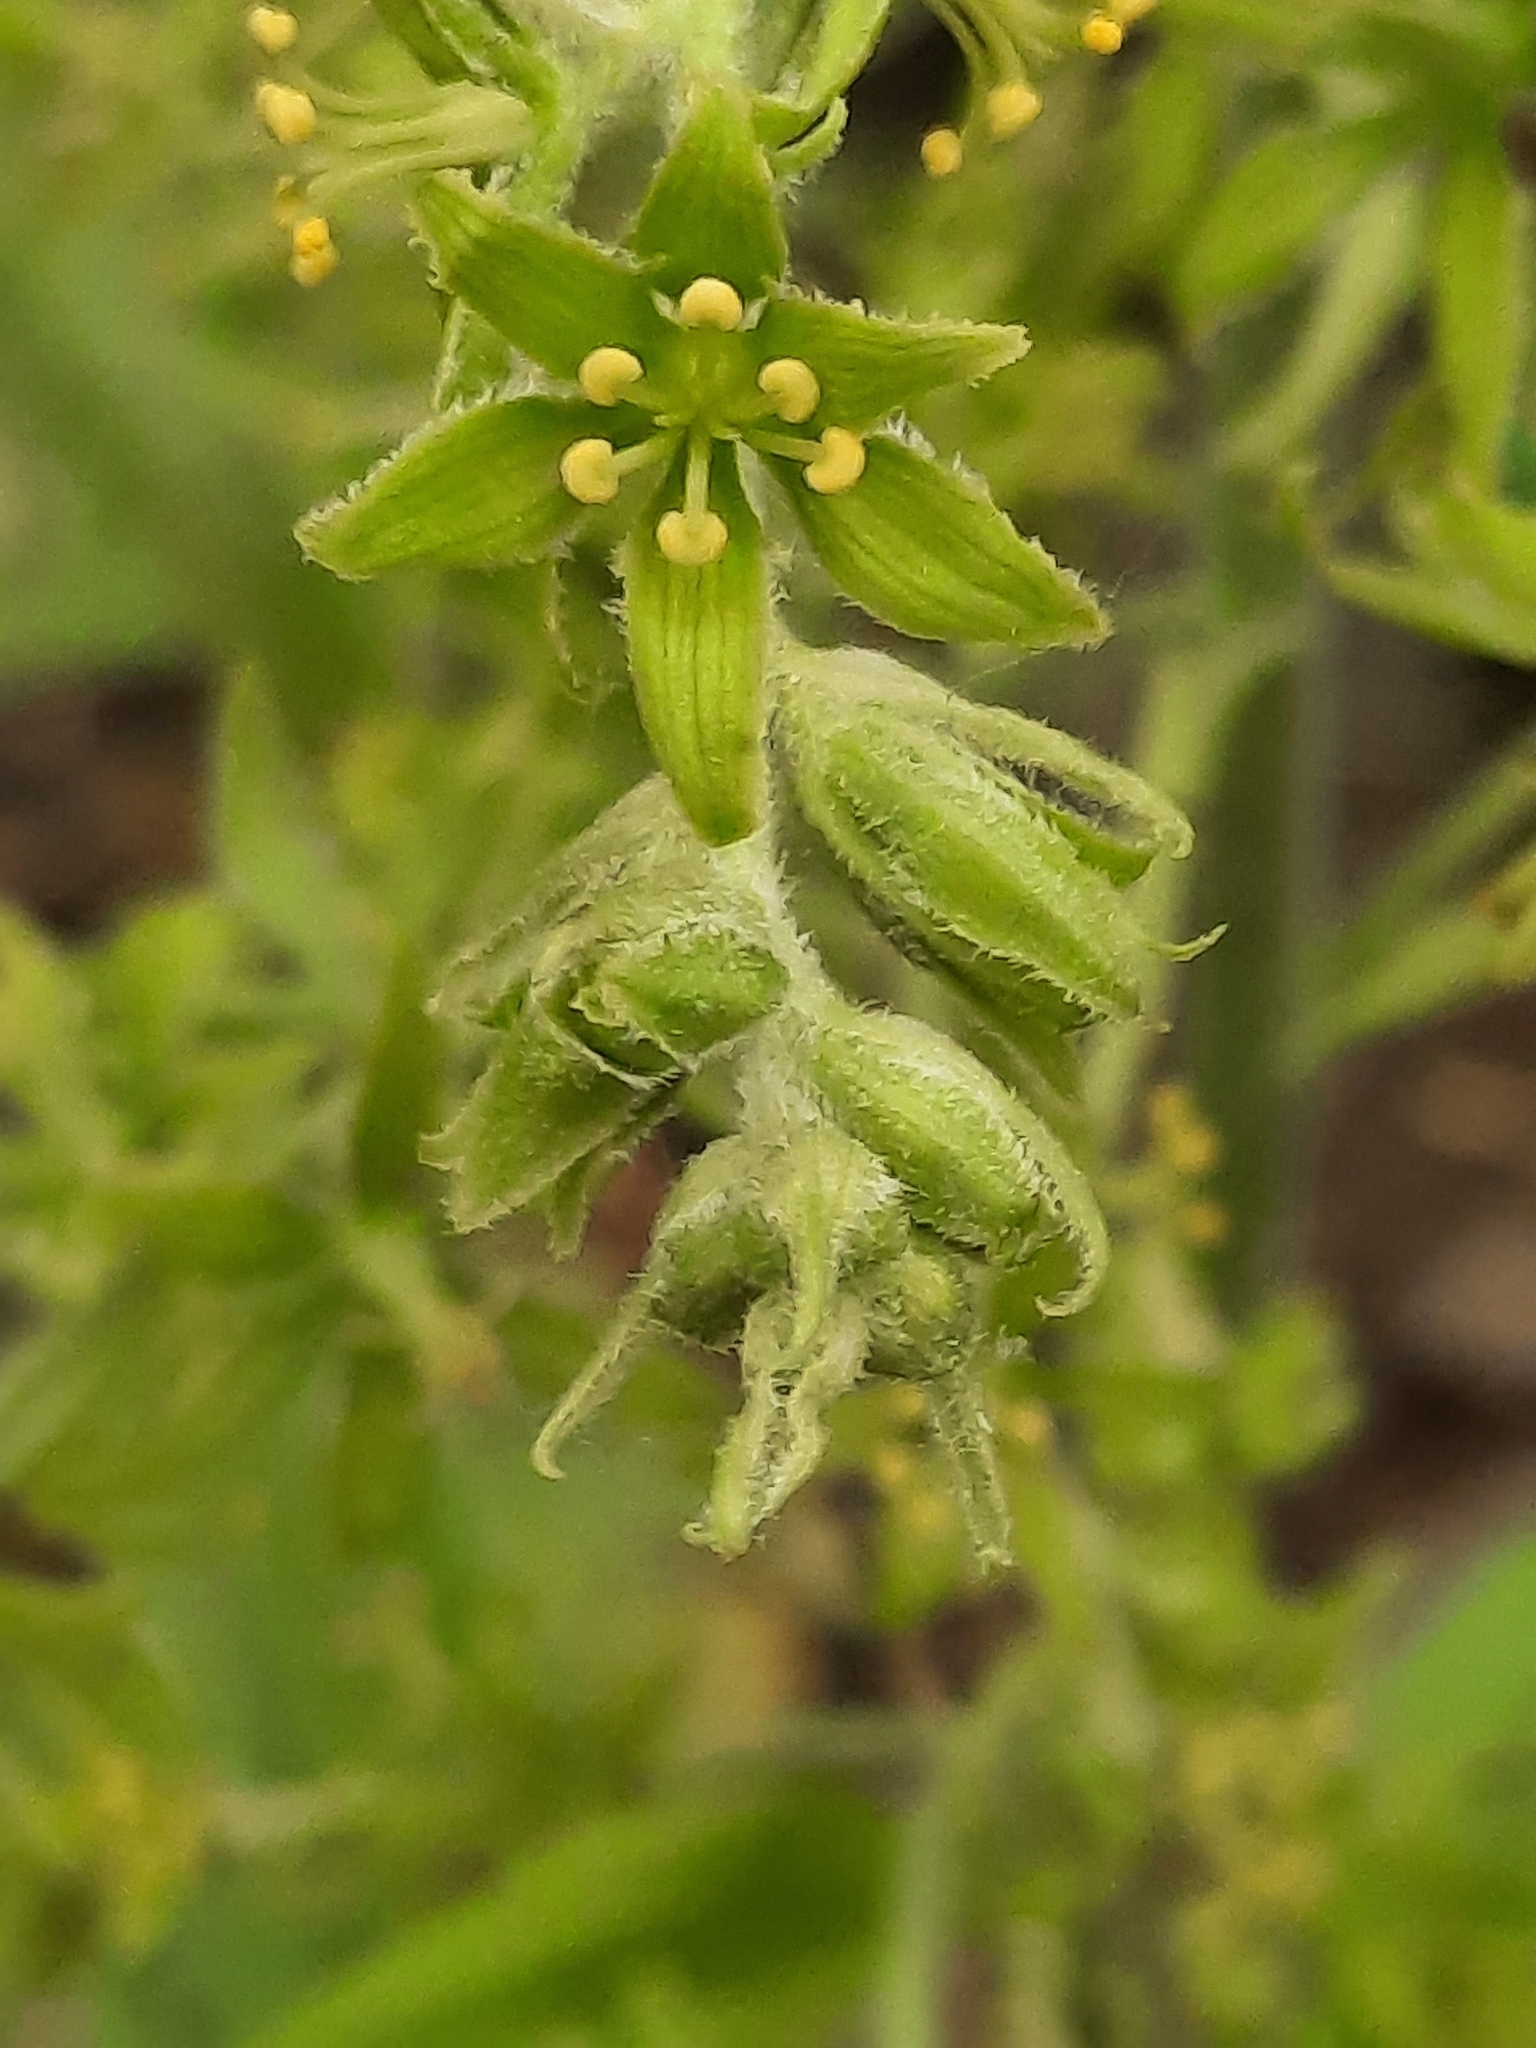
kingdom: Plantae
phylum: Tracheophyta
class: Liliopsida
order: Liliales
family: Melanthiaceae
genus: Veratrum
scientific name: Veratrum viride
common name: American false hellebore
